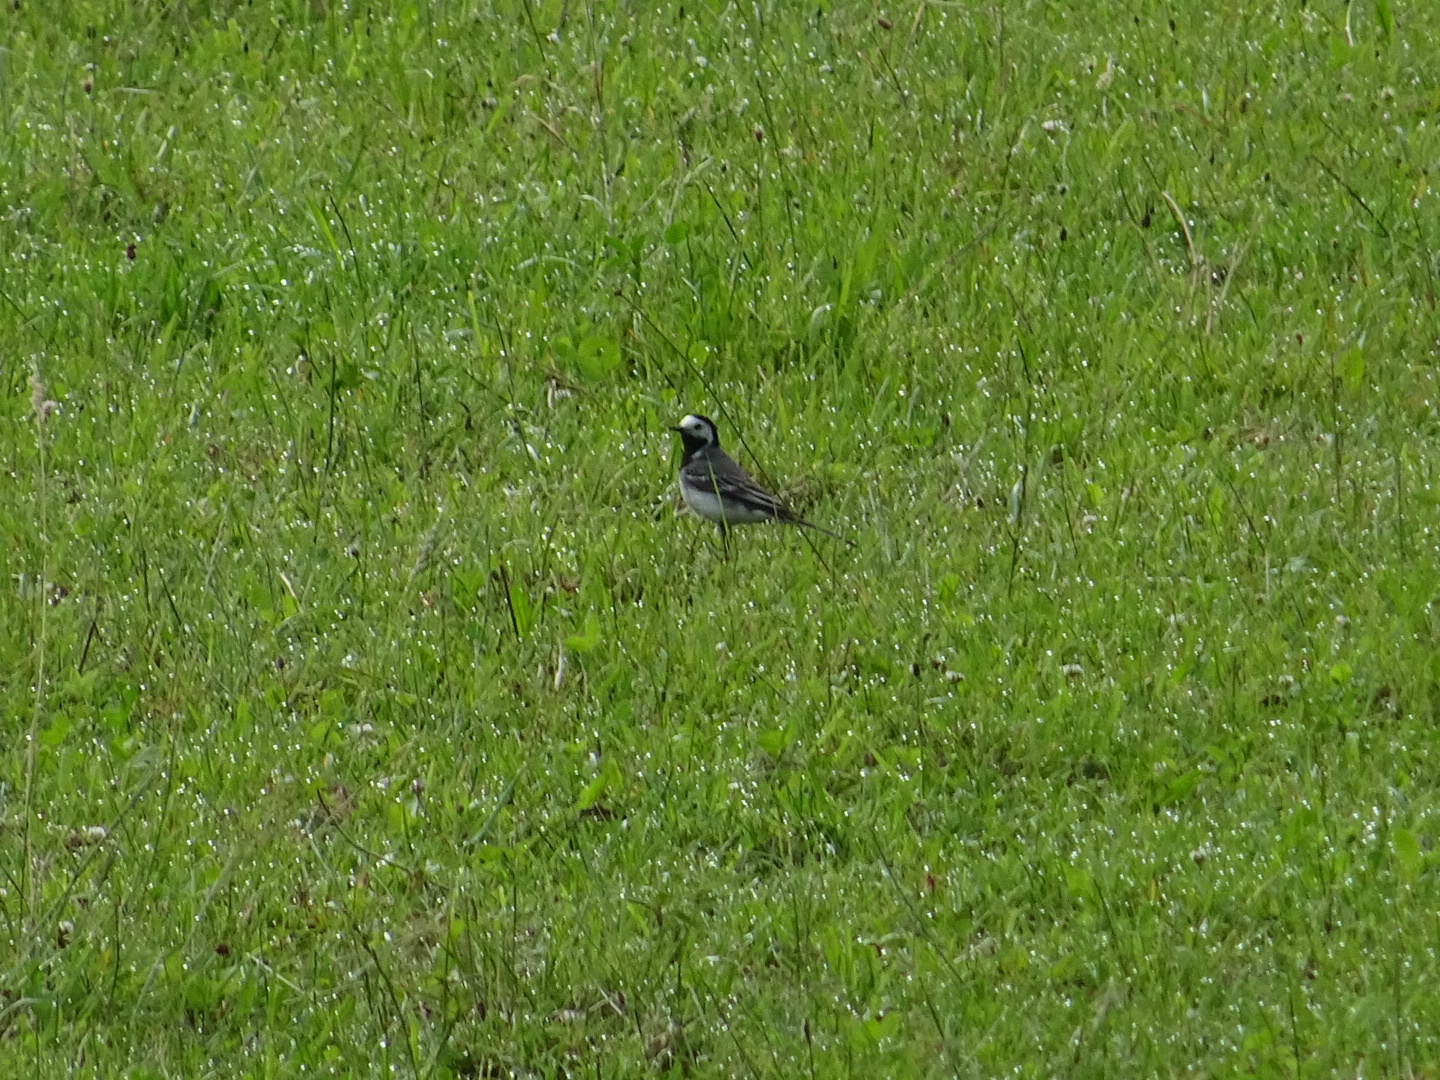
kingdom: Animalia
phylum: Chordata
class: Aves
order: Passeriformes
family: Motacillidae
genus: Motacilla
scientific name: Motacilla alba
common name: White wagtail
